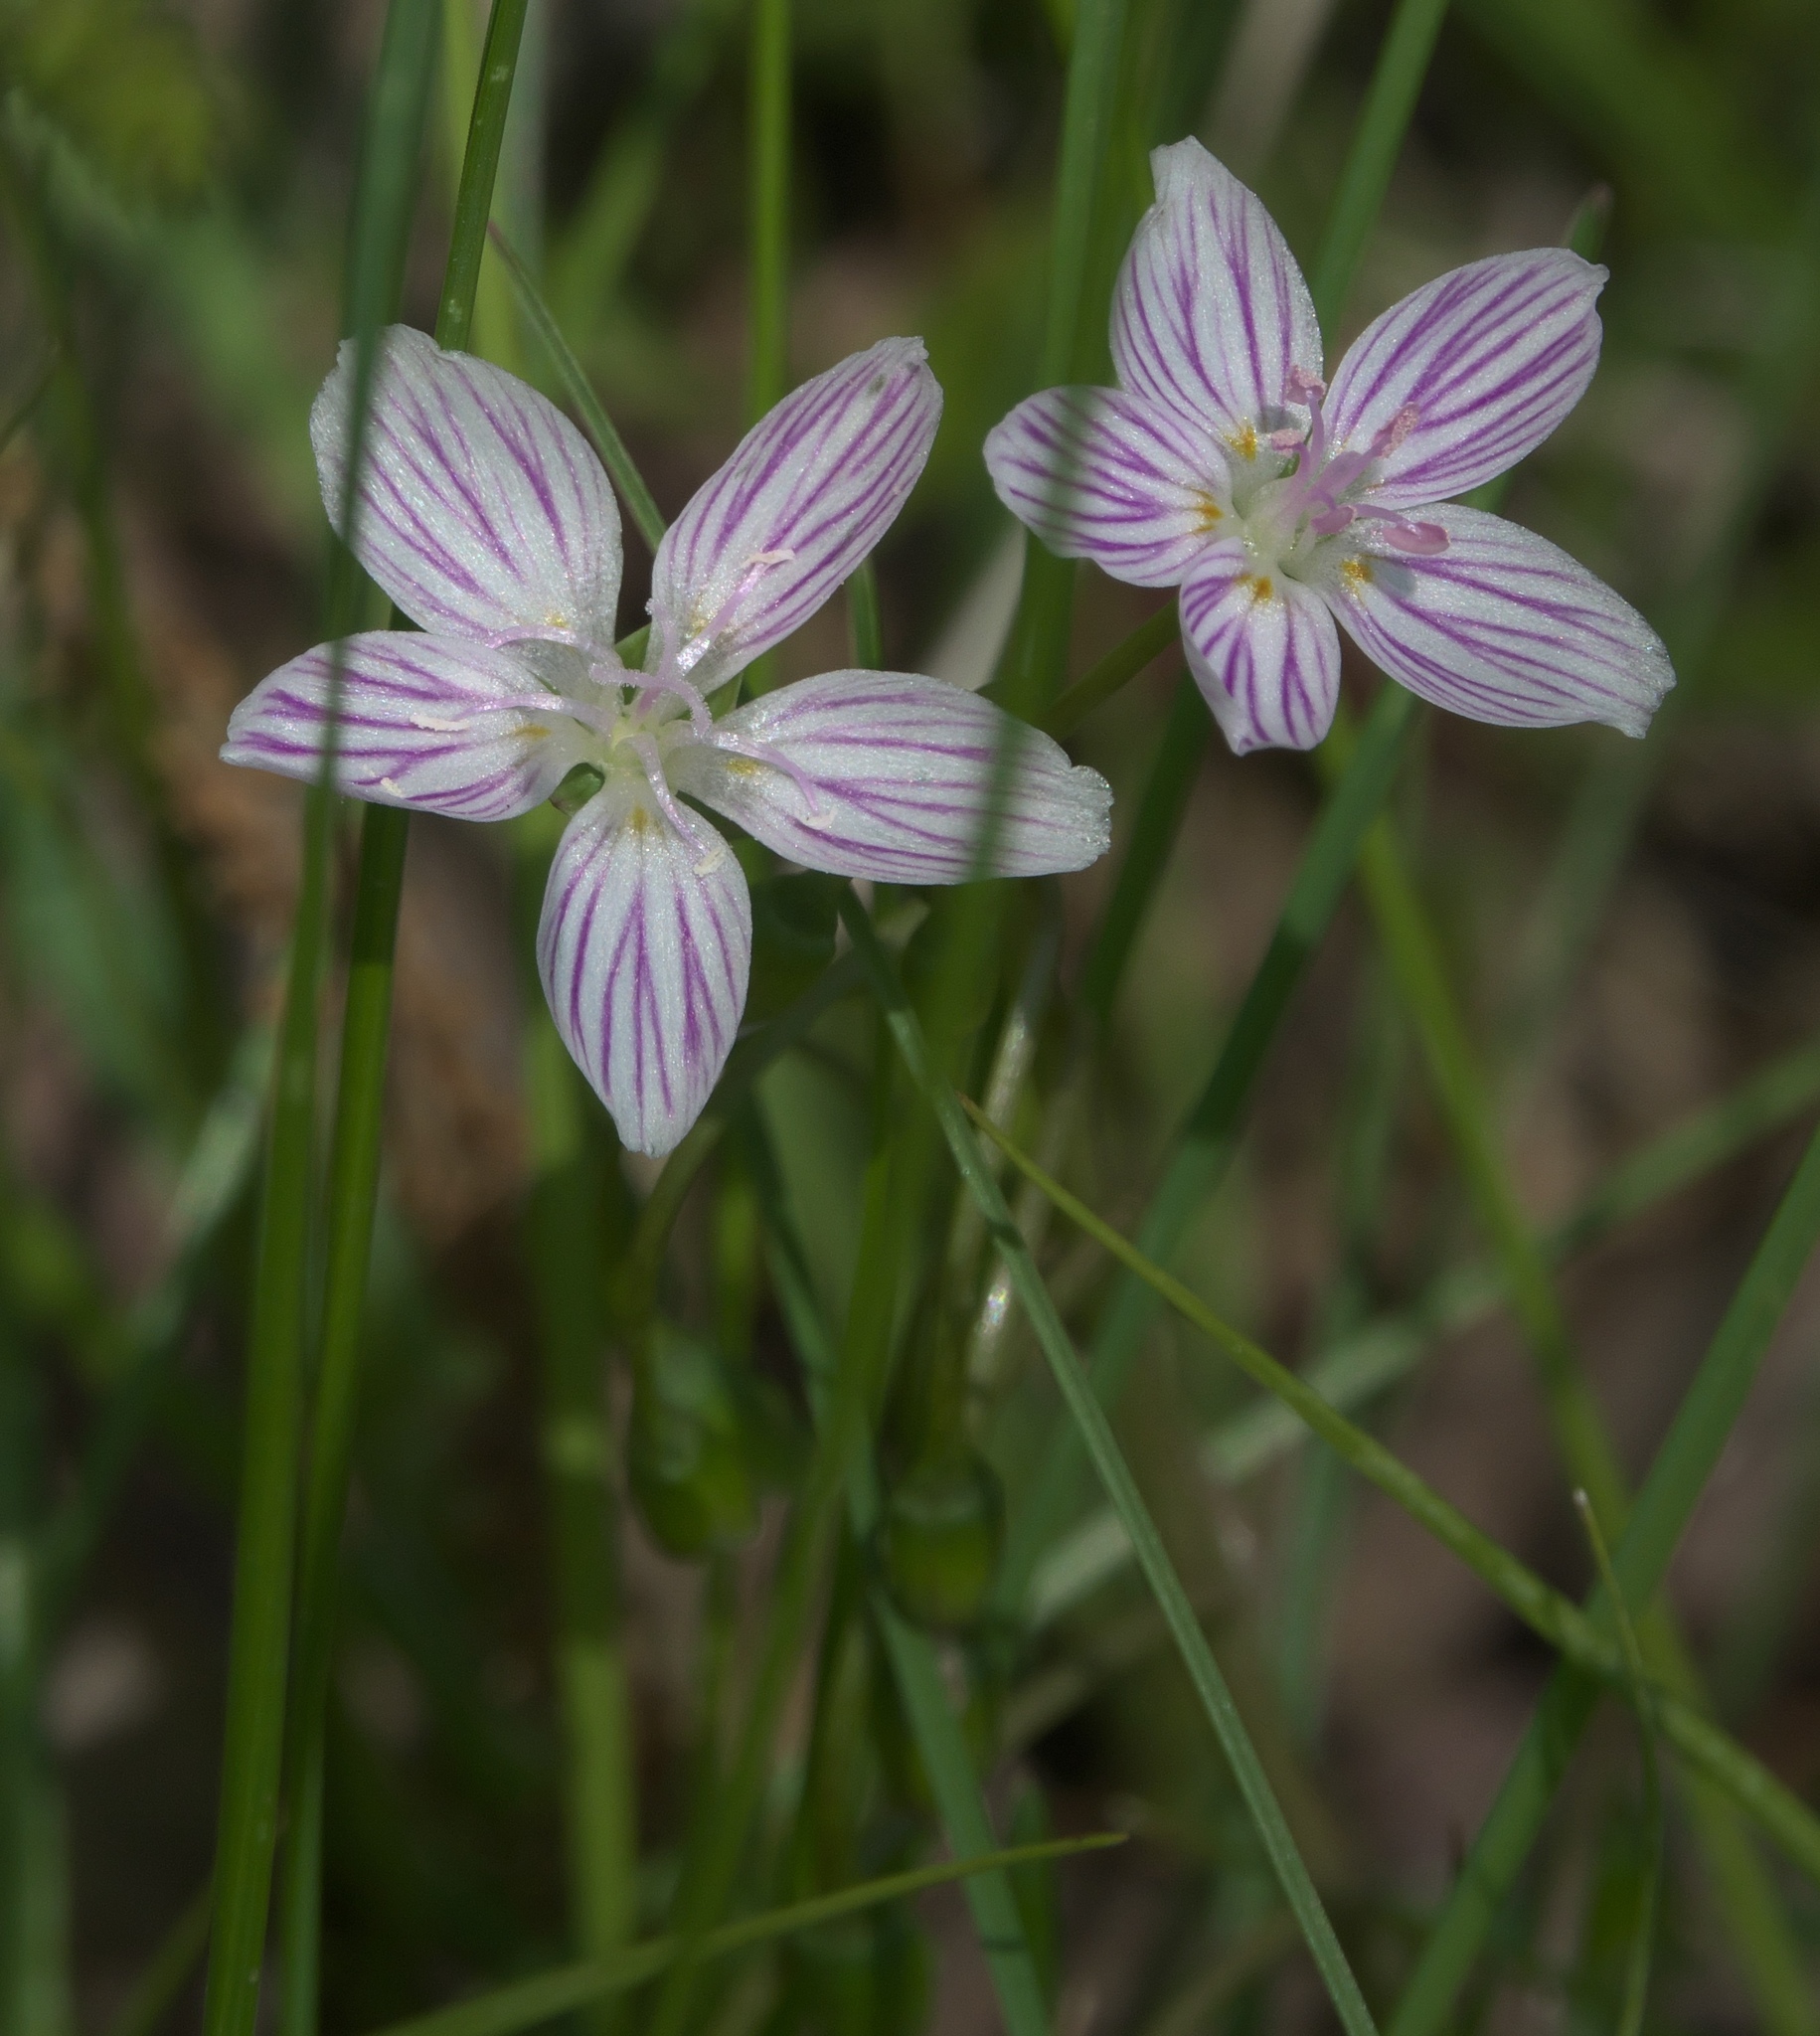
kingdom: Plantae
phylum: Tracheophyta
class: Magnoliopsida
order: Caryophyllales
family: Montiaceae
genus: Claytonia
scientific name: Claytonia virginica
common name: Virginia springbeauty
